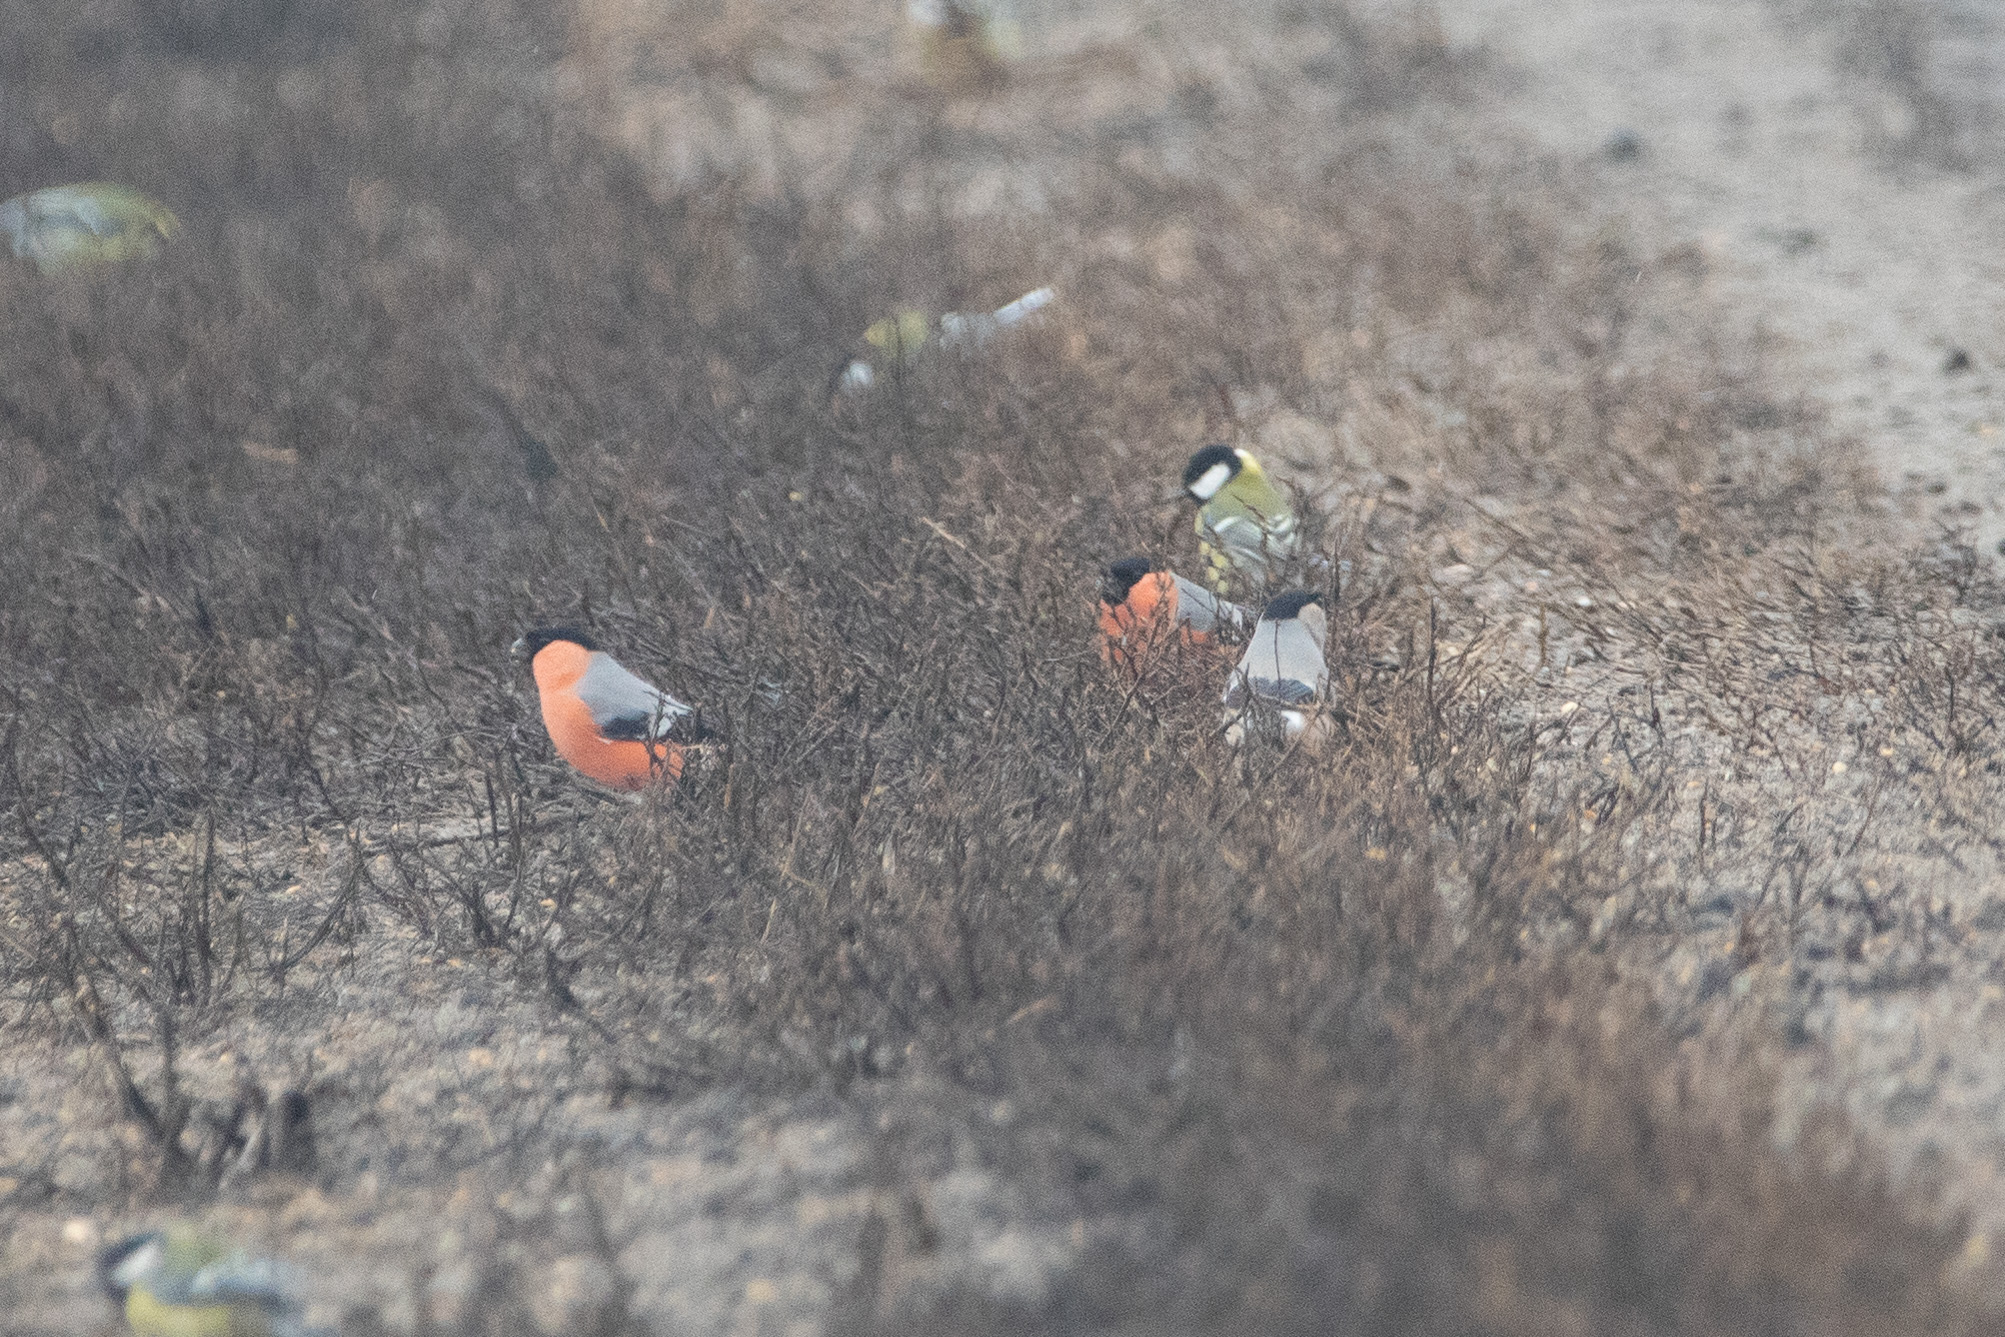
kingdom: Animalia
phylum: Chordata
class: Aves
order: Passeriformes
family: Fringillidae
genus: Pyrrhula
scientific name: Pyrrhula pyrrhula
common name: Eurasian bullfinch
